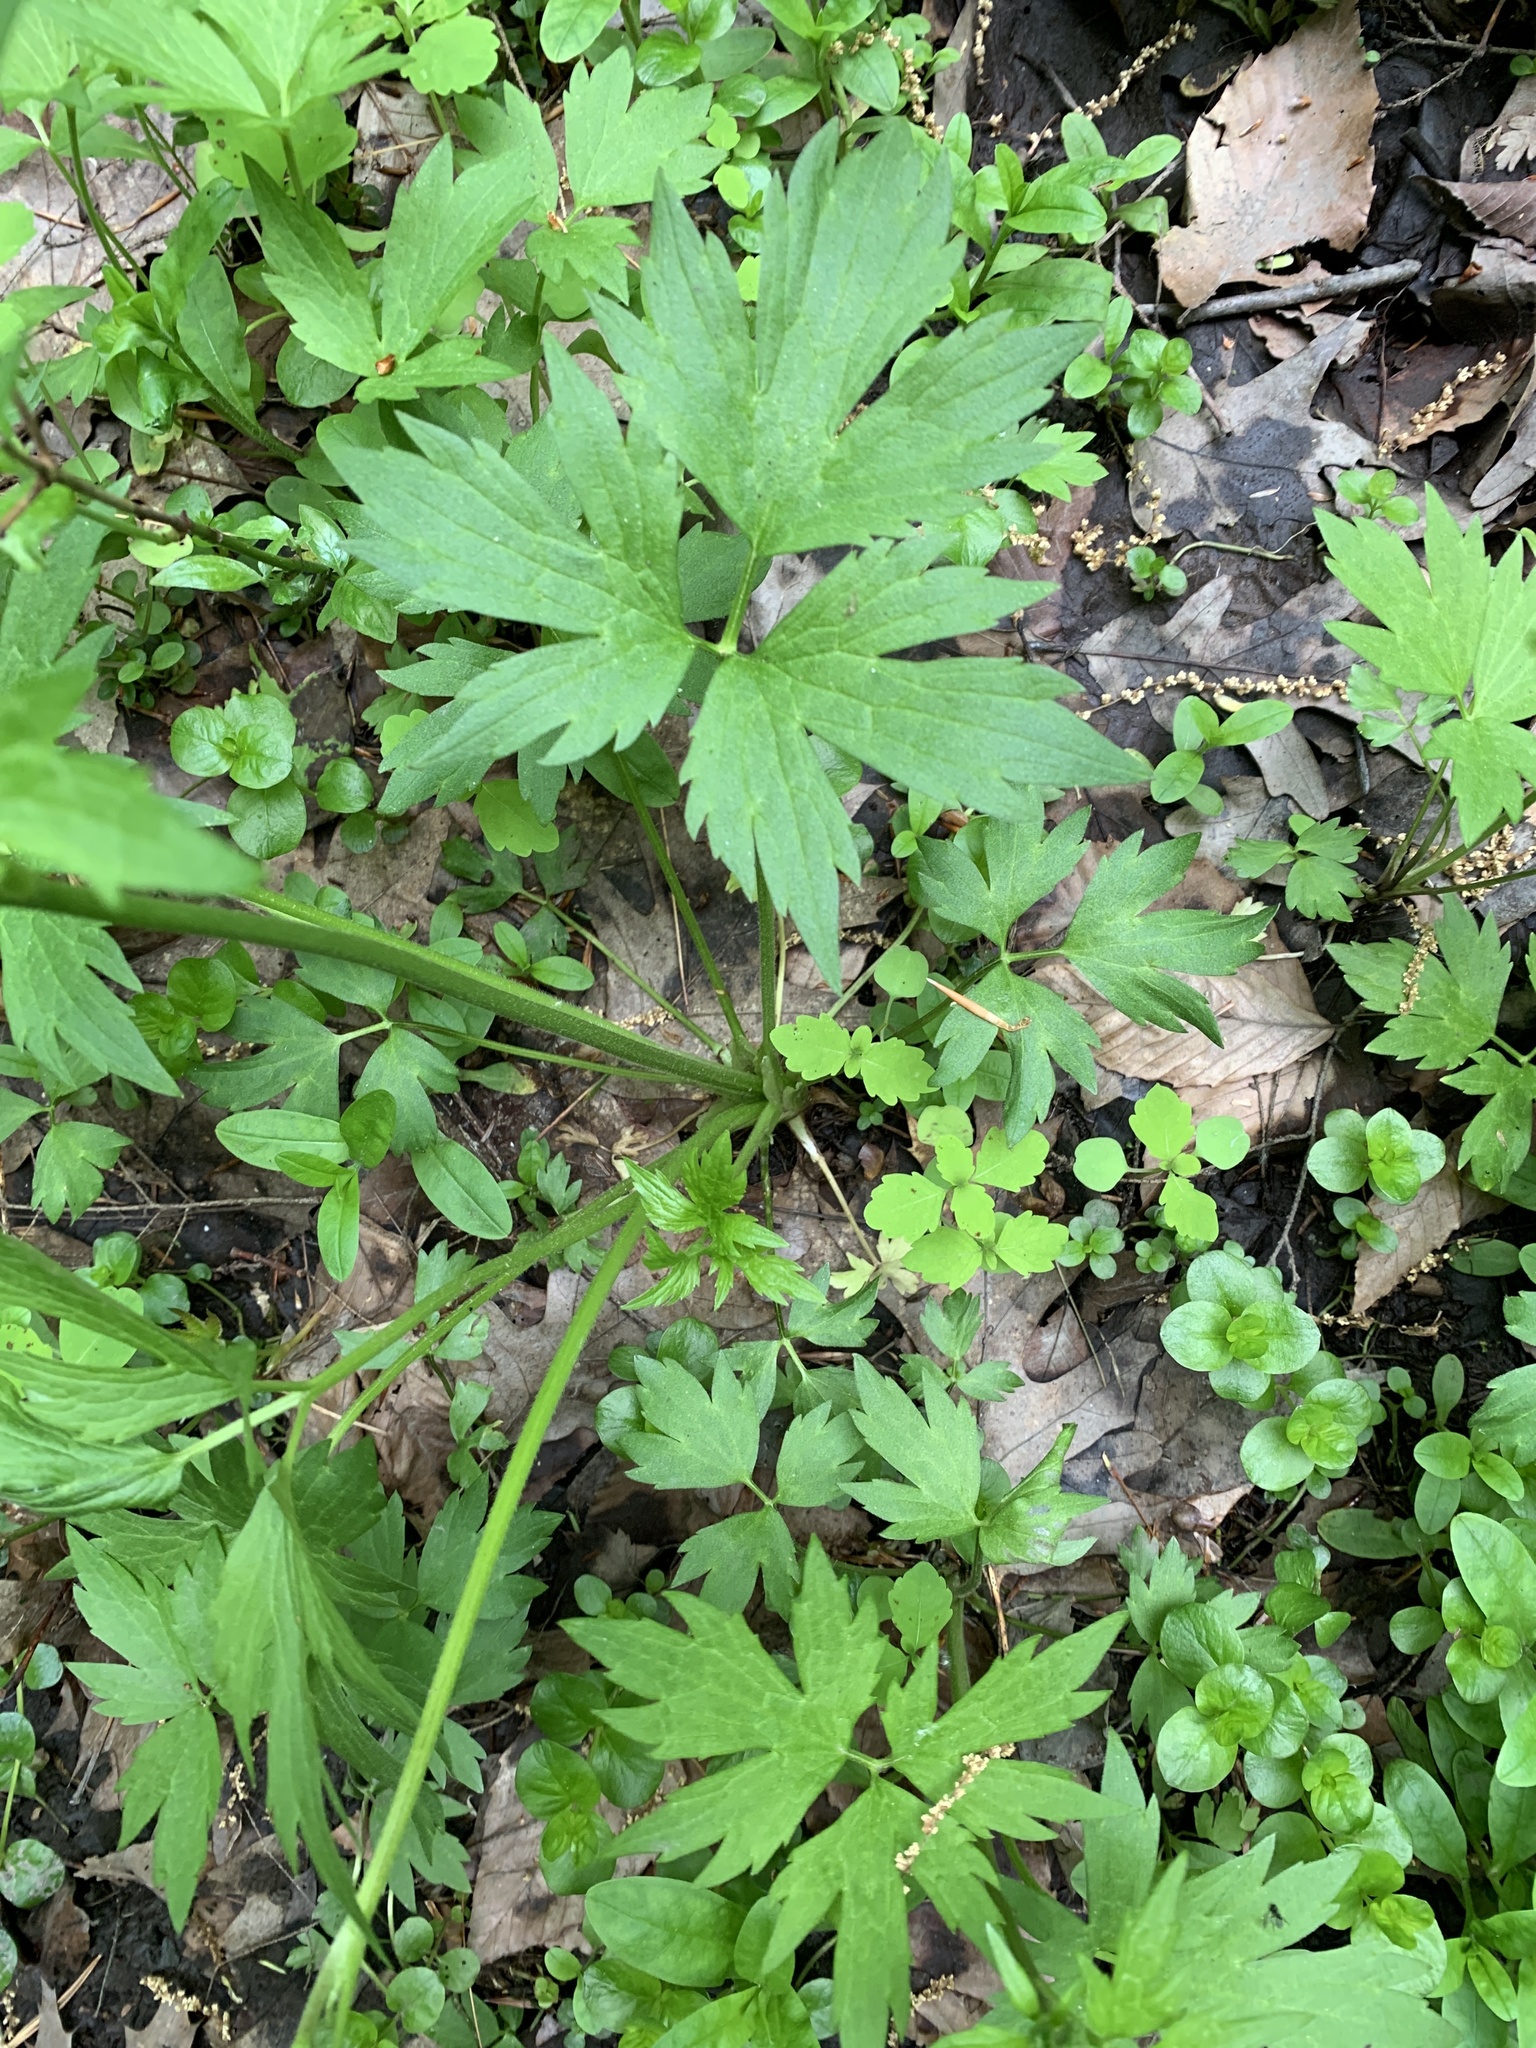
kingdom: Plantae
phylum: Tracheophyta
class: Magnoliopsida
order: Ranunculales
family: Ranunculaceae
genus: Ranunculus
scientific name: Ranunculus hispidus
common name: Bristly buttercup
